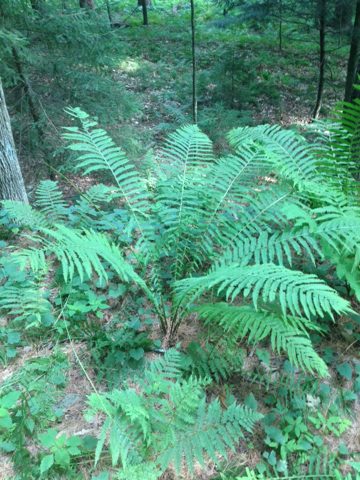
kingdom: Plantae
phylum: Tracheophyta
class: Polypodiopsida
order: Polypodiales
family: Onocleaceae
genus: Matteuccia
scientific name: Matteuccia struthiopteris
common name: Ostrich fern
